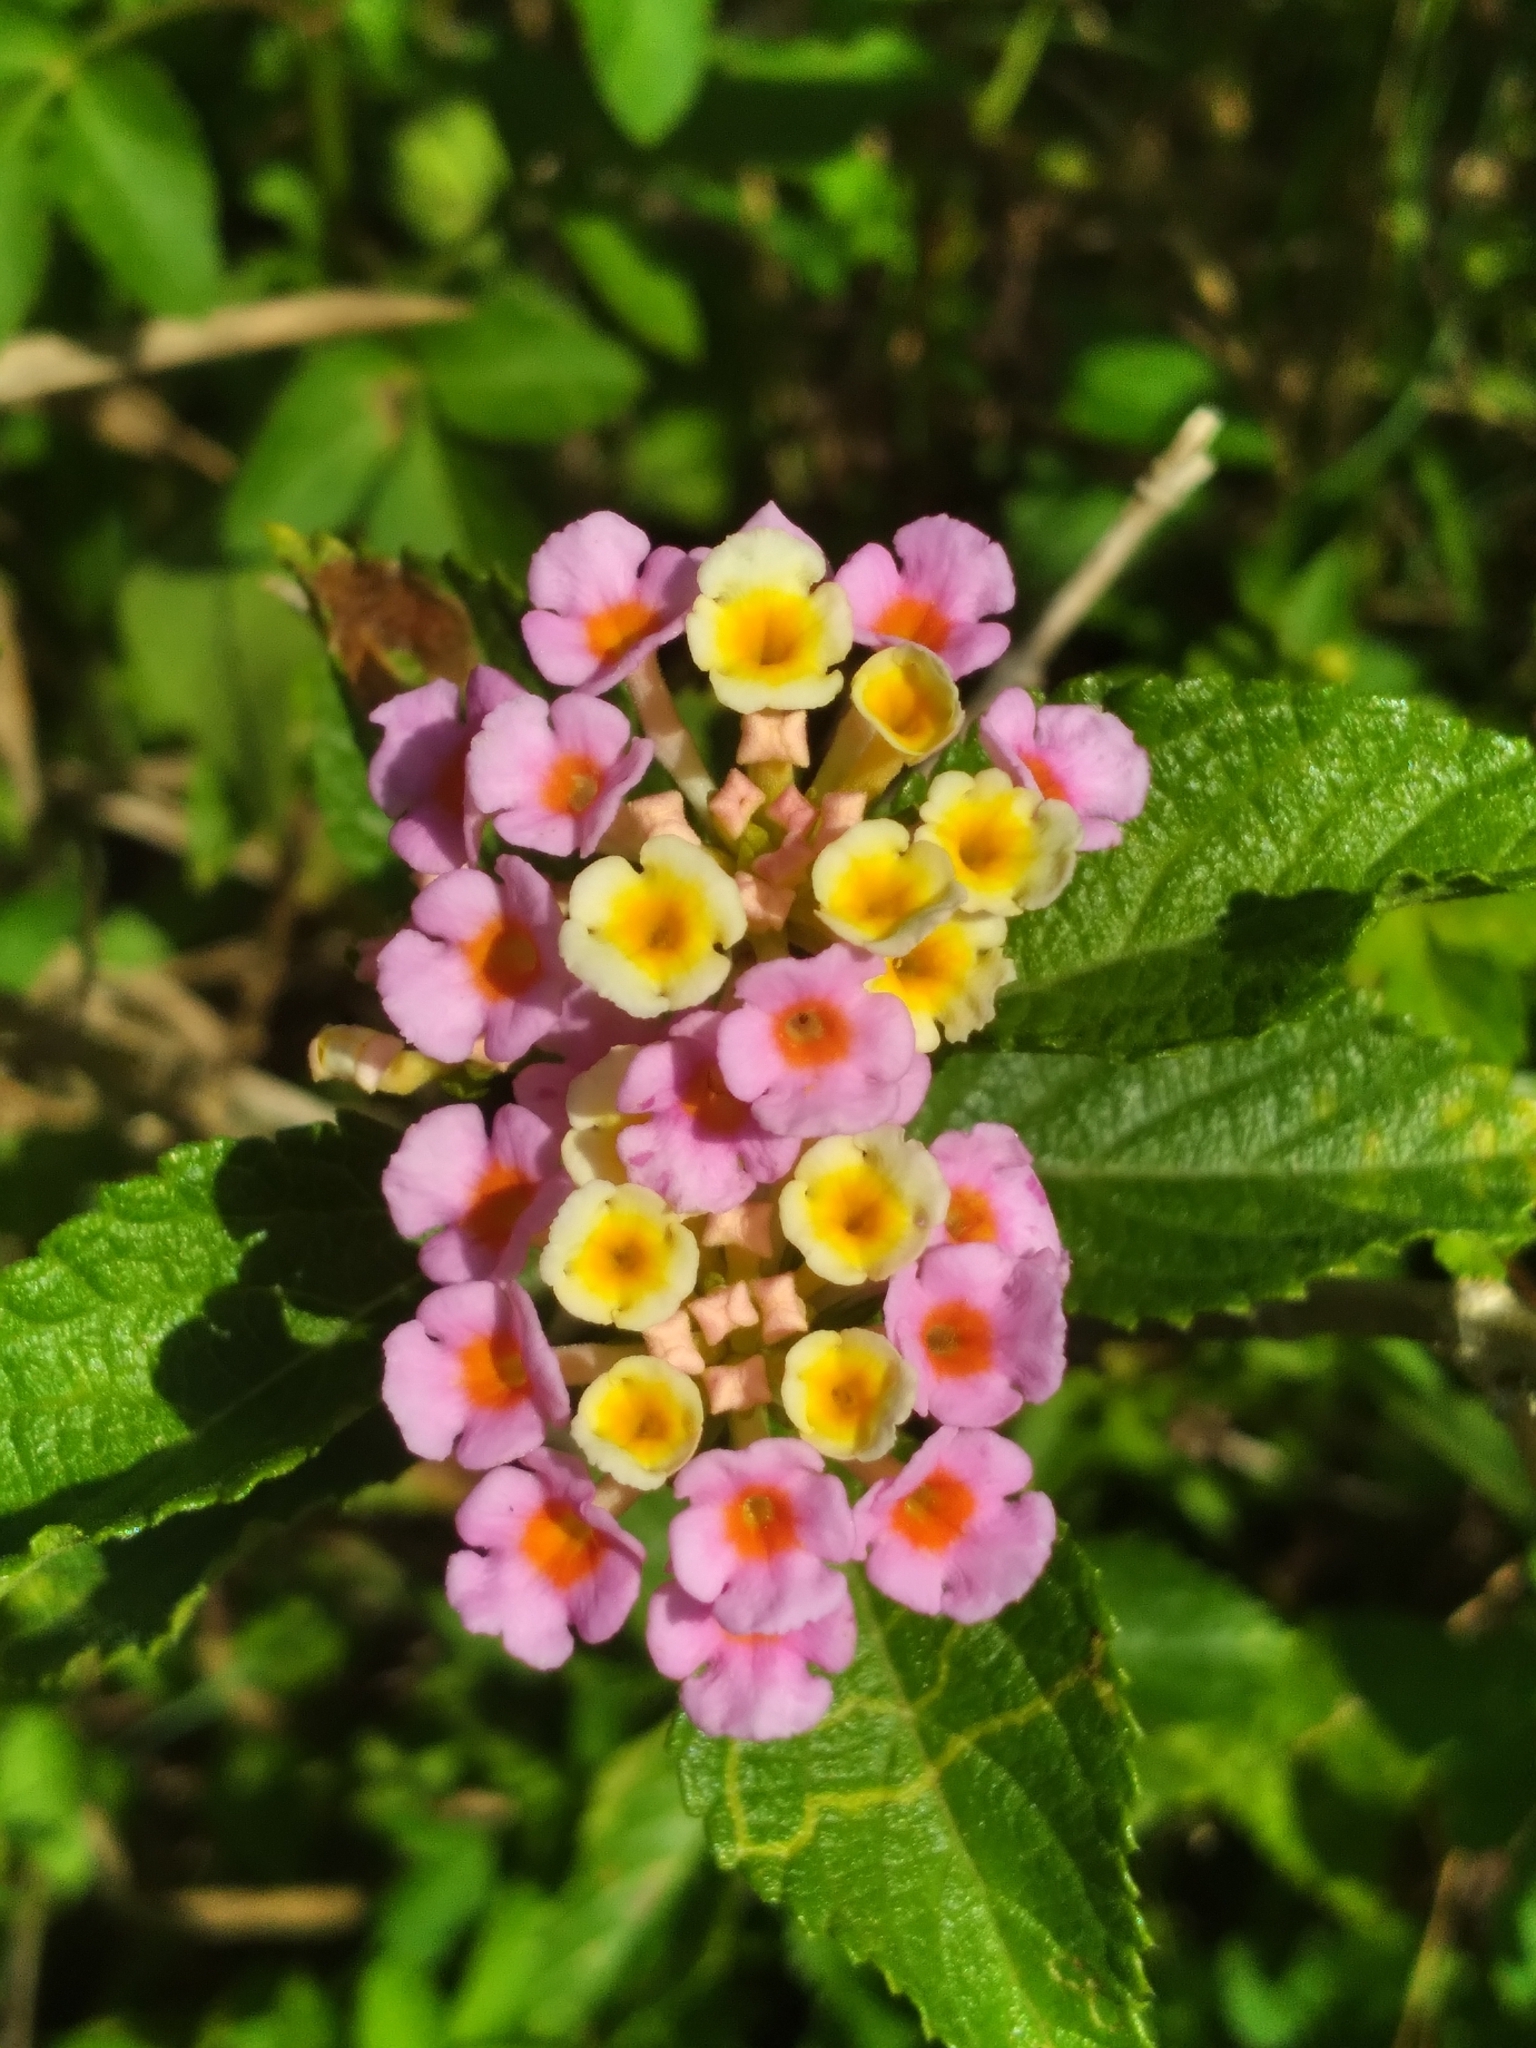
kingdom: Plantae
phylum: Tracheophyta
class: Magnoliopsida
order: Lamiales
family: Verbenaceae
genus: Lantana
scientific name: Lantana strigocamara
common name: Lantana
